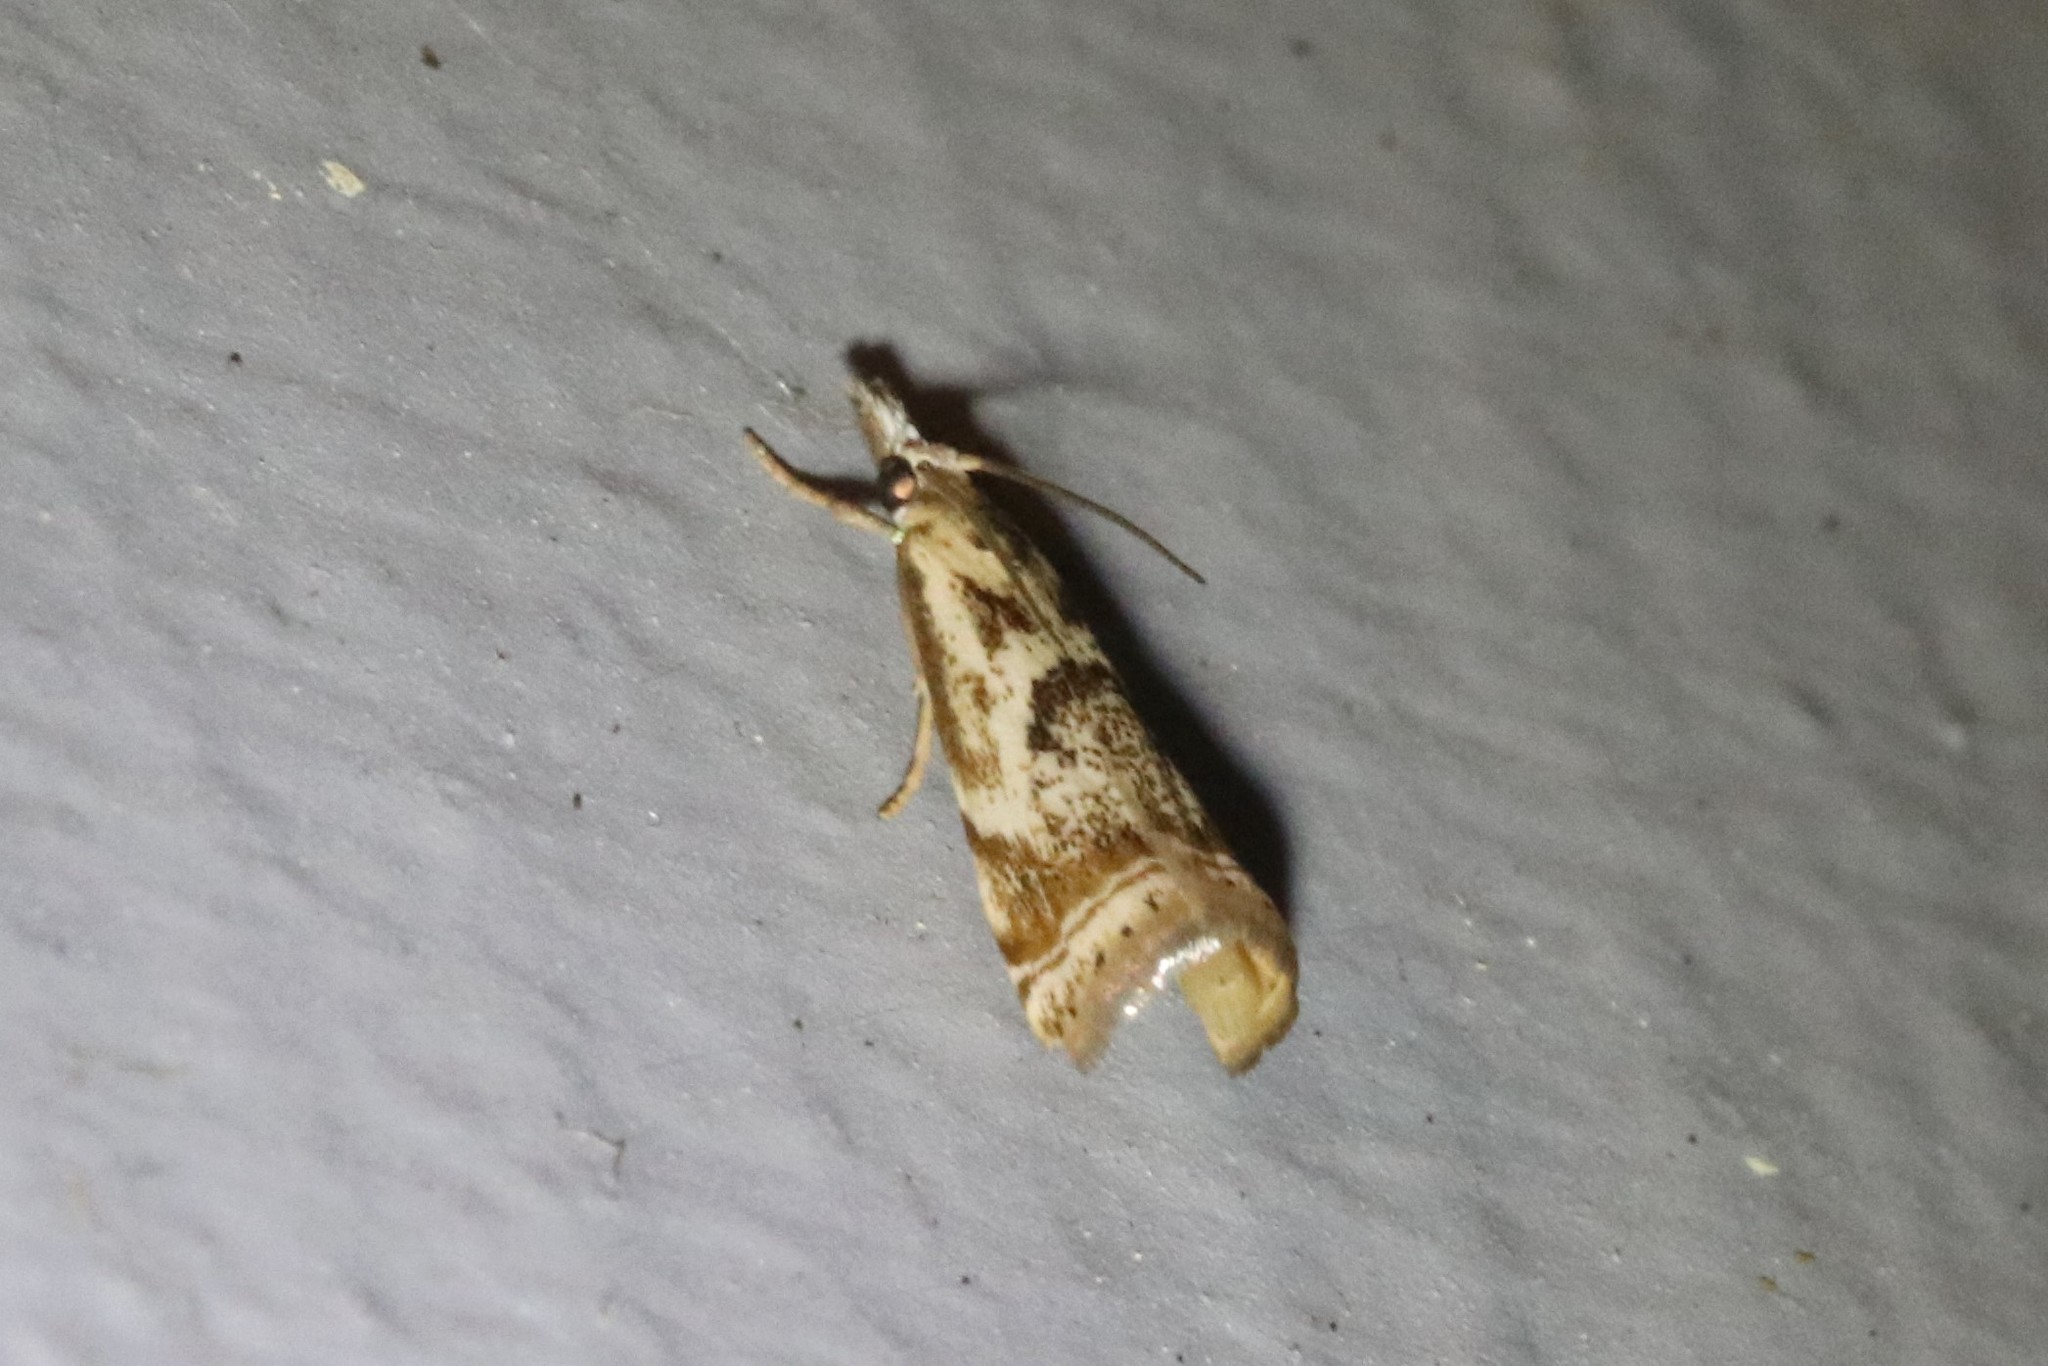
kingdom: Animalia
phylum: Arthropoda
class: Insecta
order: Lepidoptera
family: Crambidae
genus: Microcrambus
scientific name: Microcrambus elegans
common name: Elegant grass-veneer
